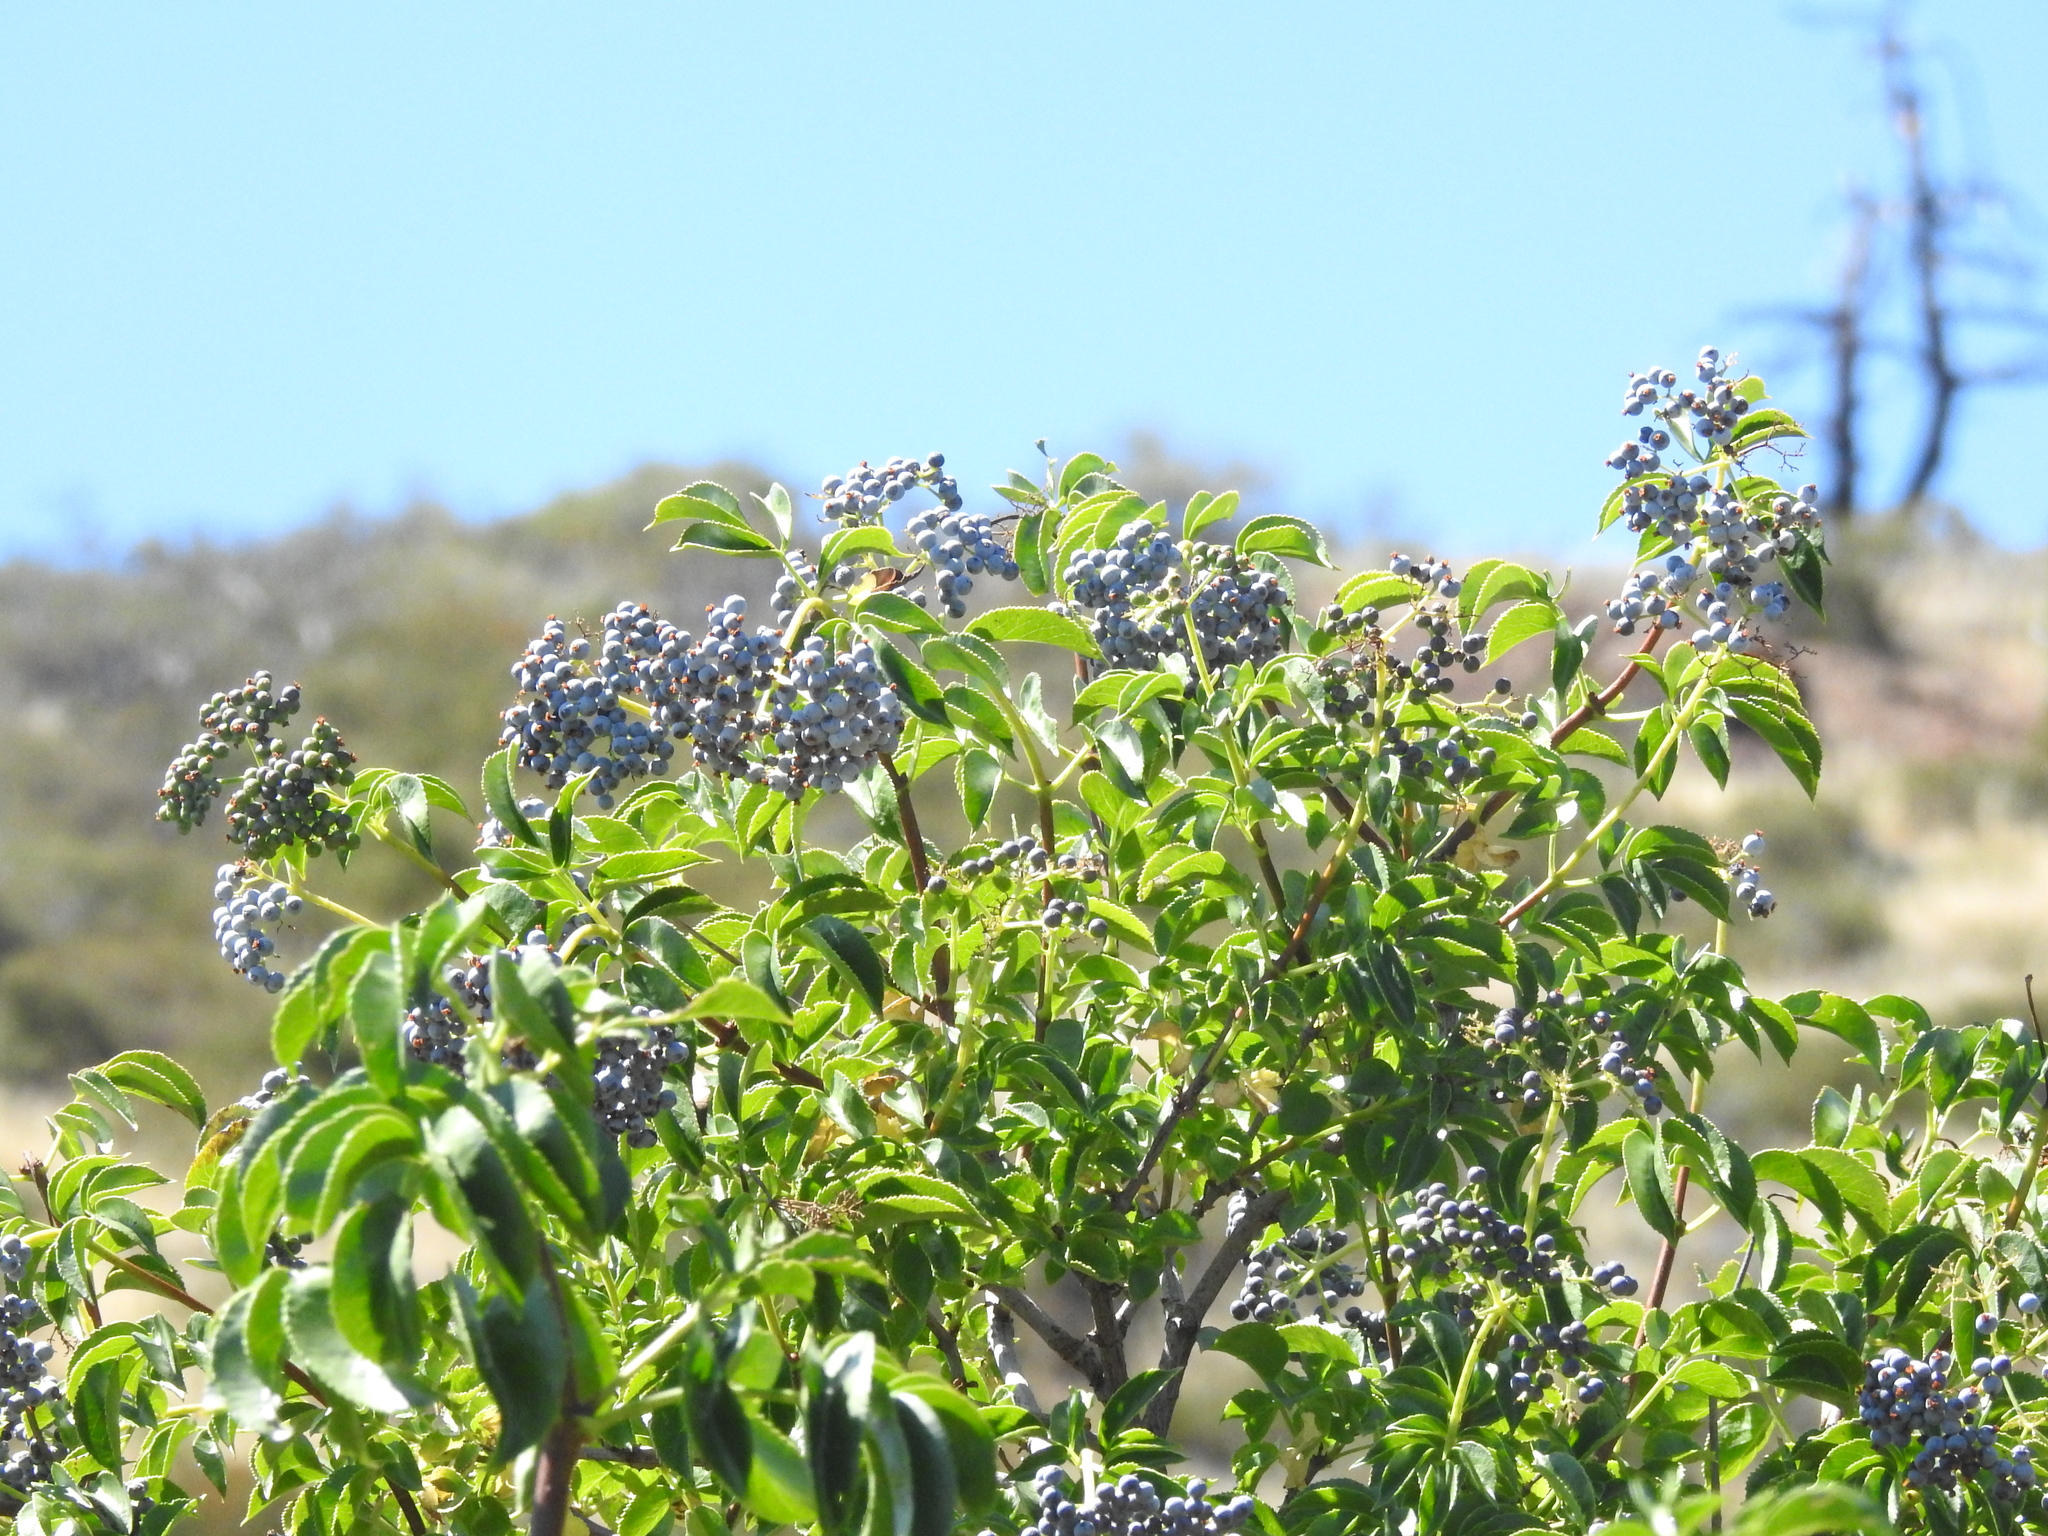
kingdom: Plantae
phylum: Tracheophyta
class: Magnoliopsida
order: Dipsacales
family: Viburnaceae
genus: Sambucus
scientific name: Sambucus cerulea
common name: Blue elder
